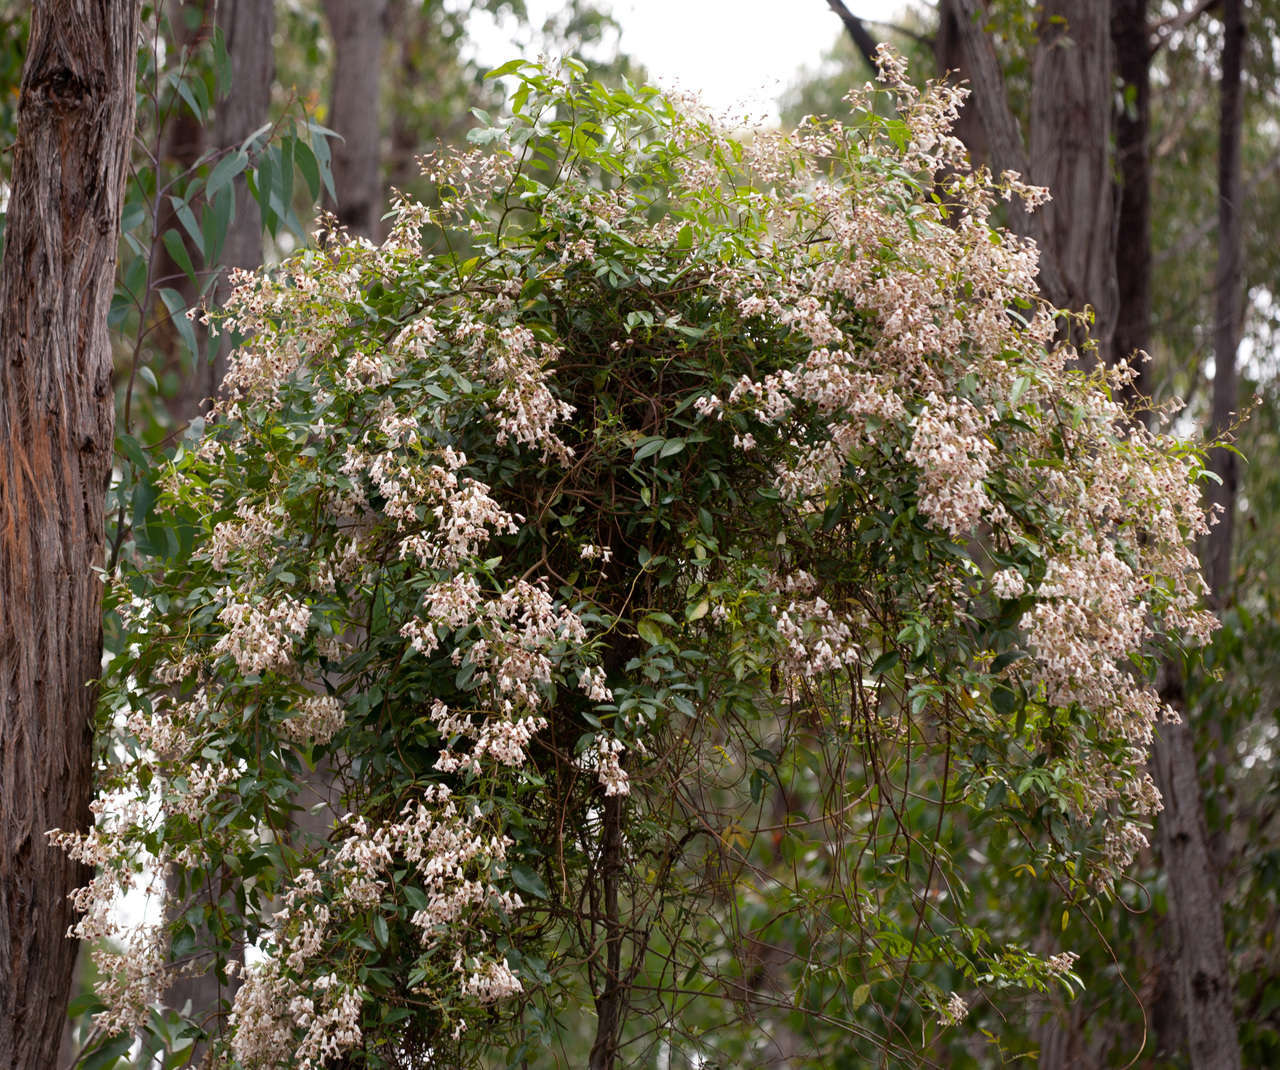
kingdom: Plantae
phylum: Tracheophyta
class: Magnoliopsida
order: Lamiales
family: Bignoniaceae
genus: Pandorea
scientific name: Pandorea pandorana
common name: Wonga-wonga-vine
